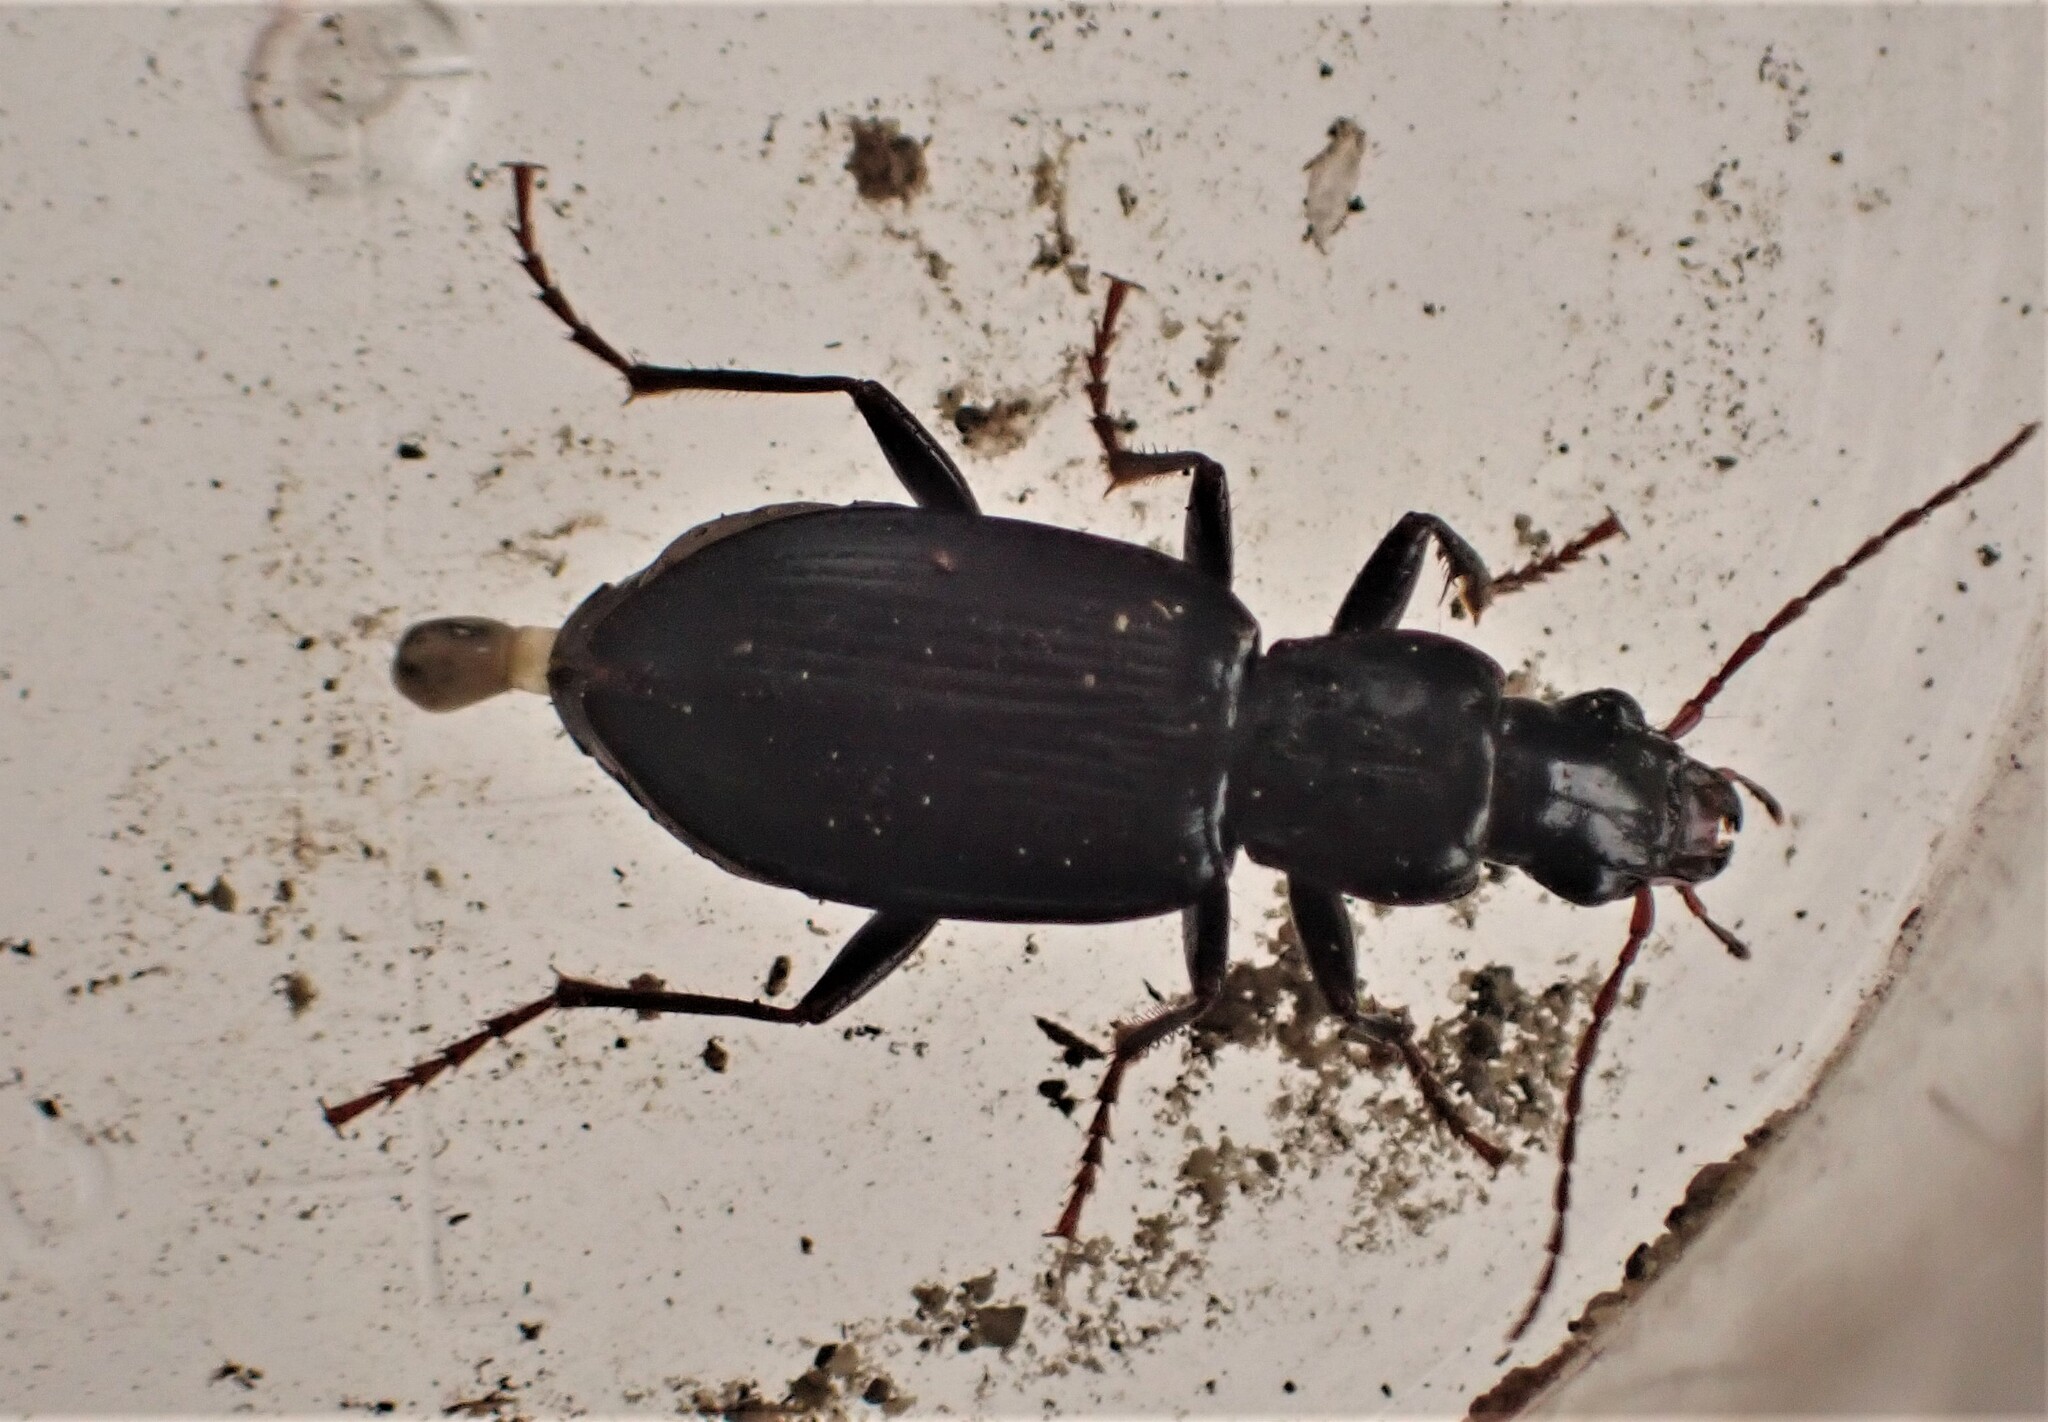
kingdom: Animalia
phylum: Arthropoda
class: Insecta
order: Coleoptera
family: Carabidae
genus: Laemostenus
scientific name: Laemostenus complanatus
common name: Cosmopolitan ground beetle
